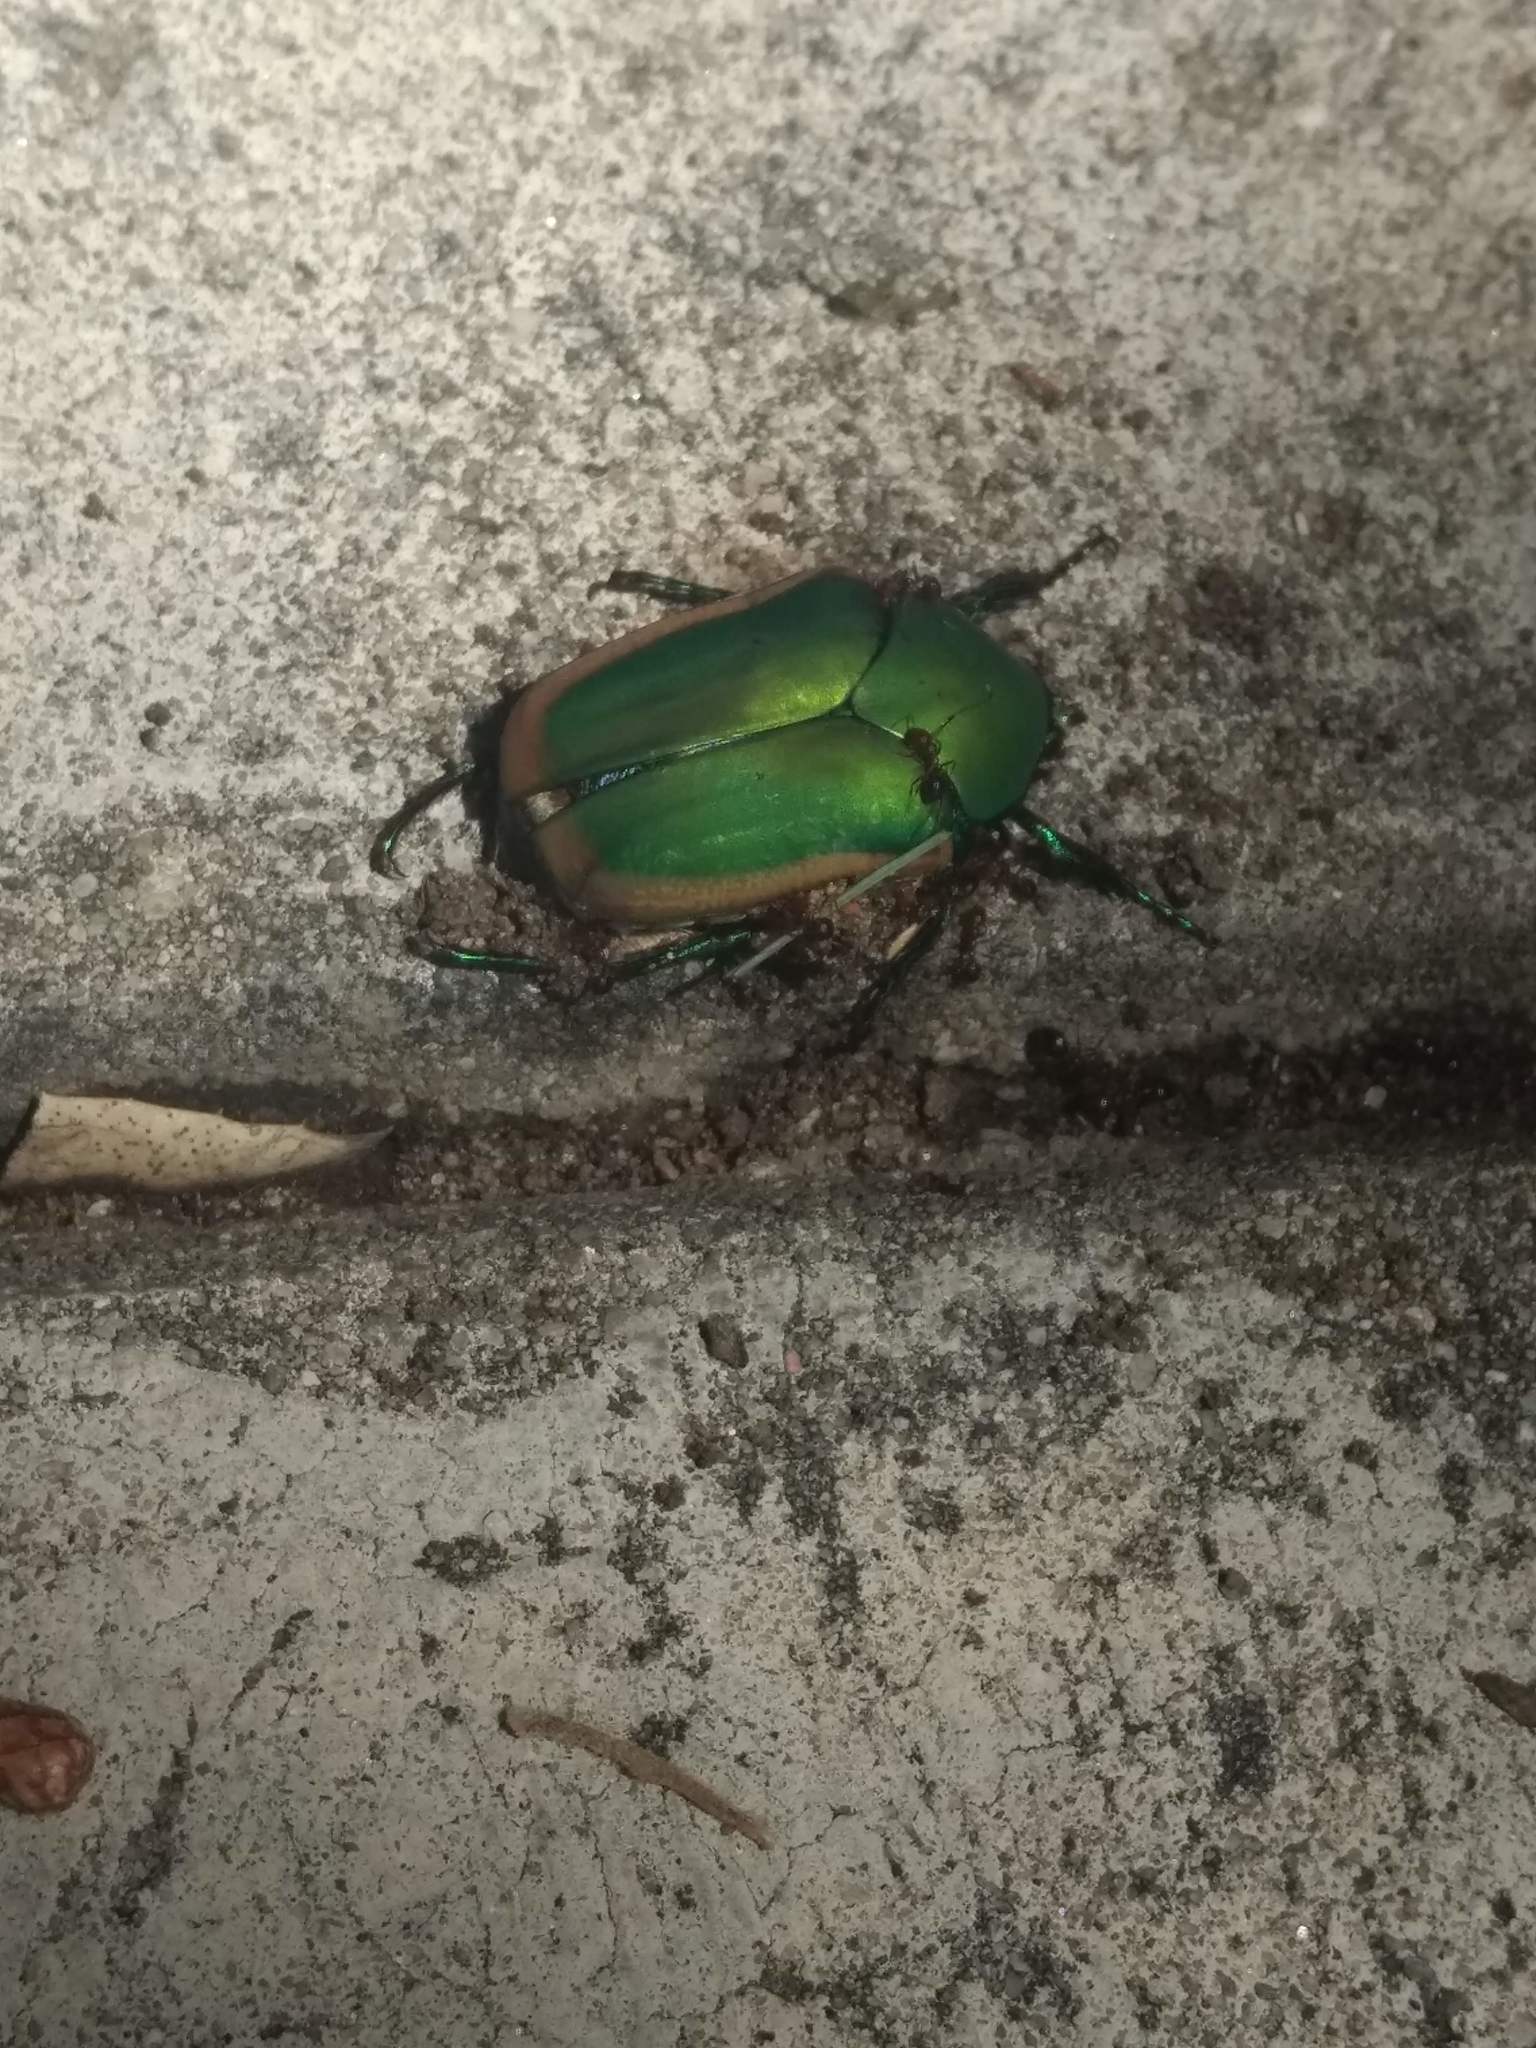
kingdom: Animalia
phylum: Arthropoda
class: Insecta
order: Coleoptera
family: Scarabaeidae
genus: Cotinis
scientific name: Cotinis mutabilis
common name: Figeater beetle
